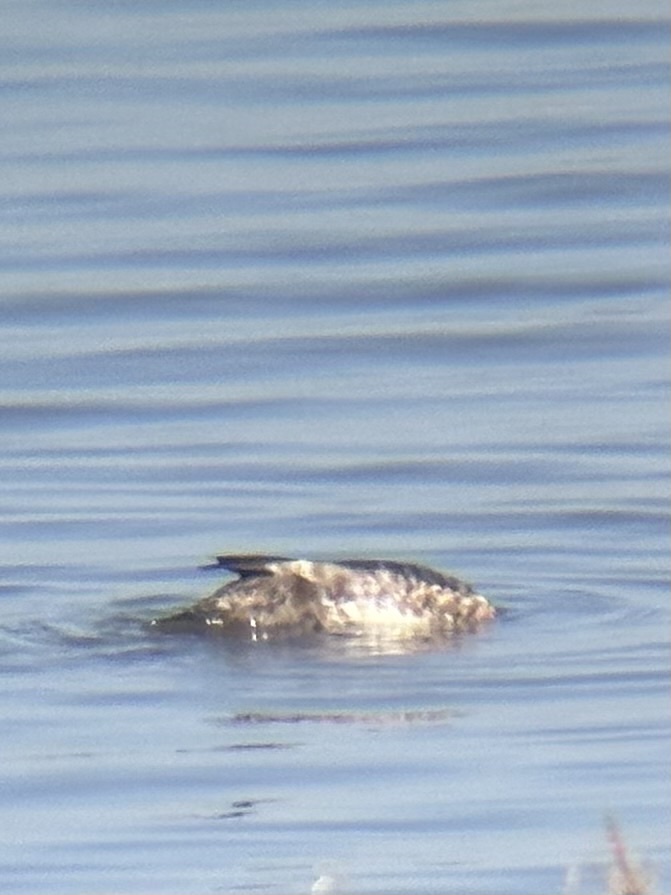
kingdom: Animalia
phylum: Chordata
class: Aves
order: Anseriformes
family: Anatidae
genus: Aythya
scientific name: Aythya marila
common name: Greater scaup
